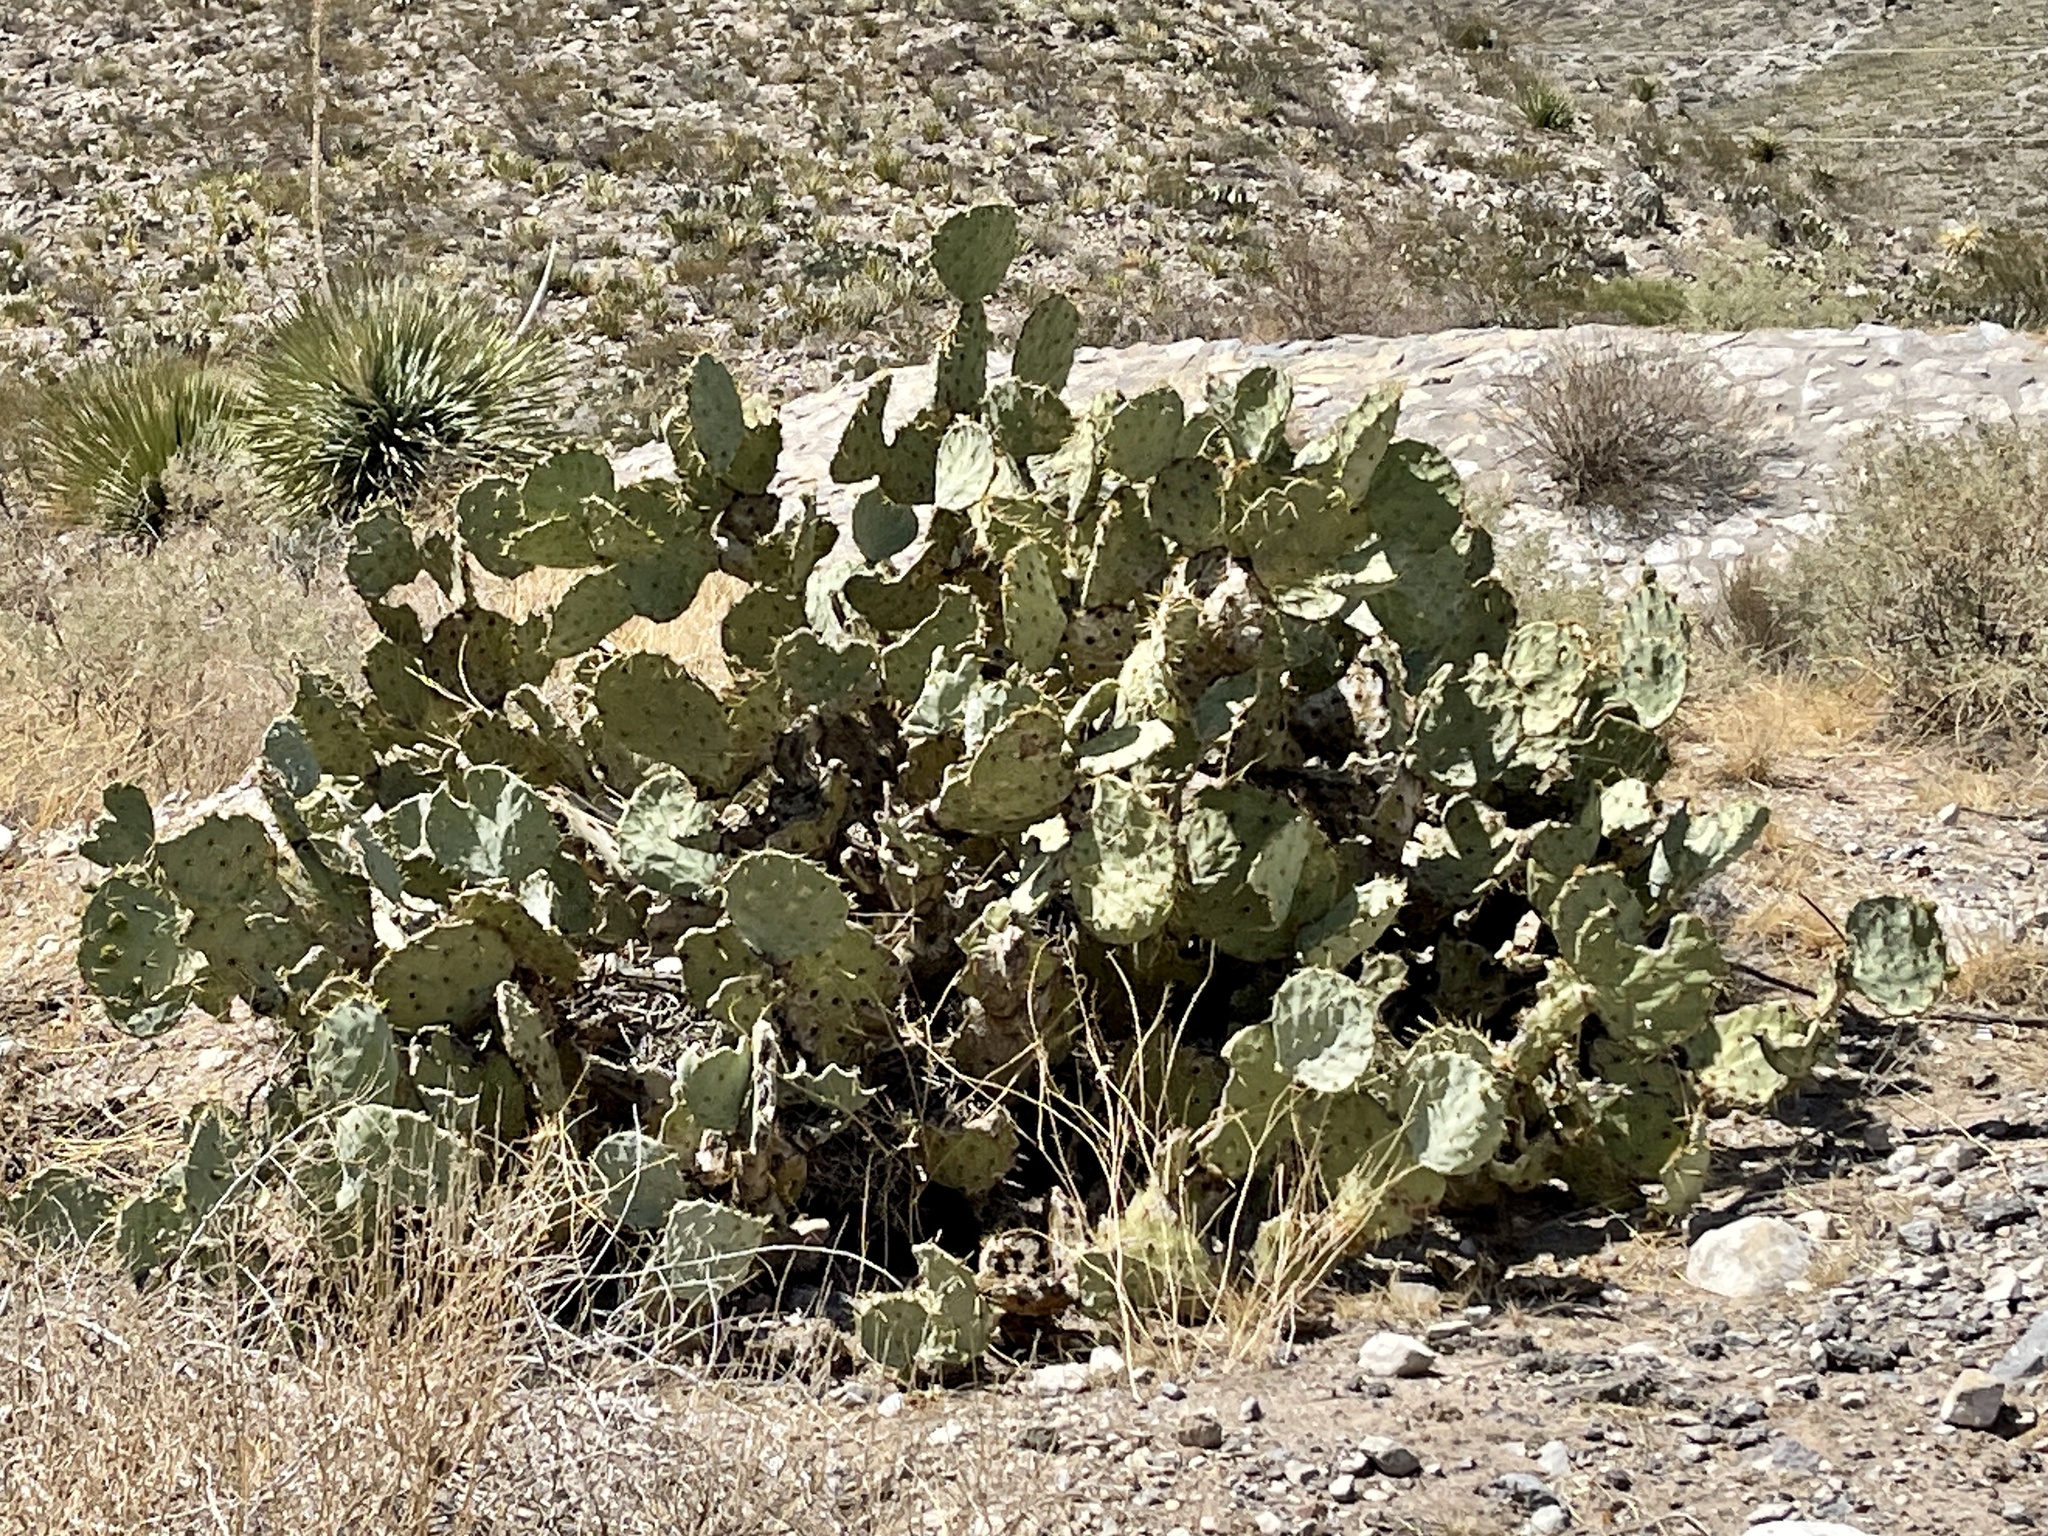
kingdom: Plantae
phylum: Tracheophyta
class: Magnoliopsida
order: Caryophyllales
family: Cactaceae
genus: Opuntia
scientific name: Opuntia engelmannii
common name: Cactus-apple
